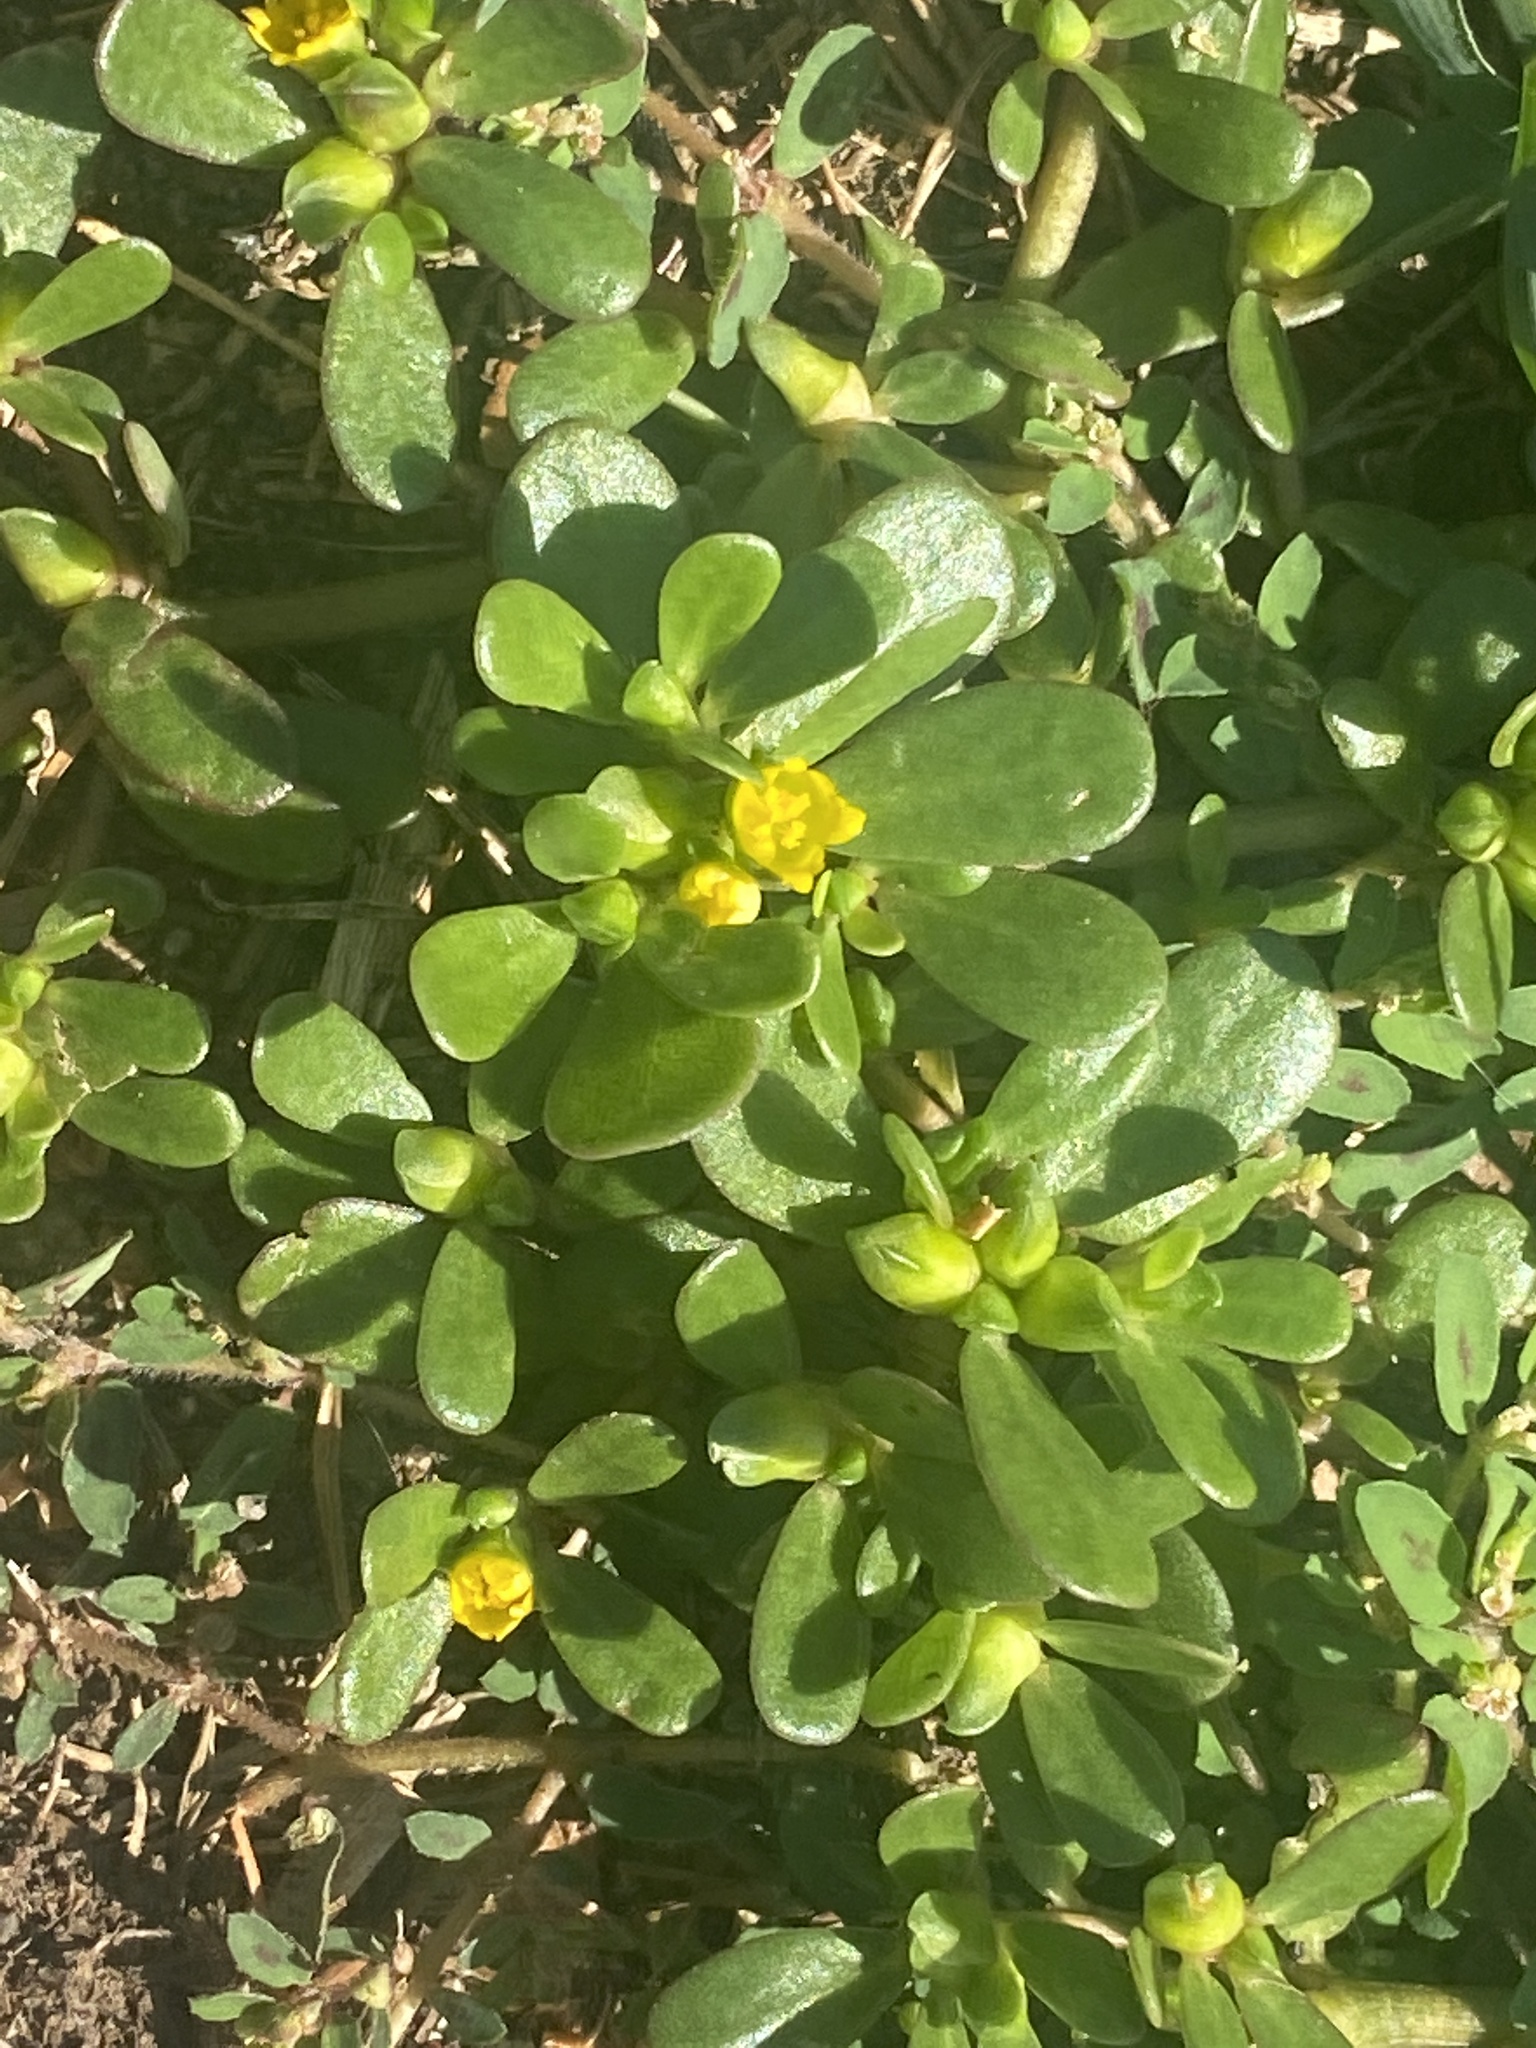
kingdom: Plantae
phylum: Tracheophyta
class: Magnoliopsida
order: Caryophyllales
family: Portulacaceae
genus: Portulaca
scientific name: Portulaca oleracea
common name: Common purslane
